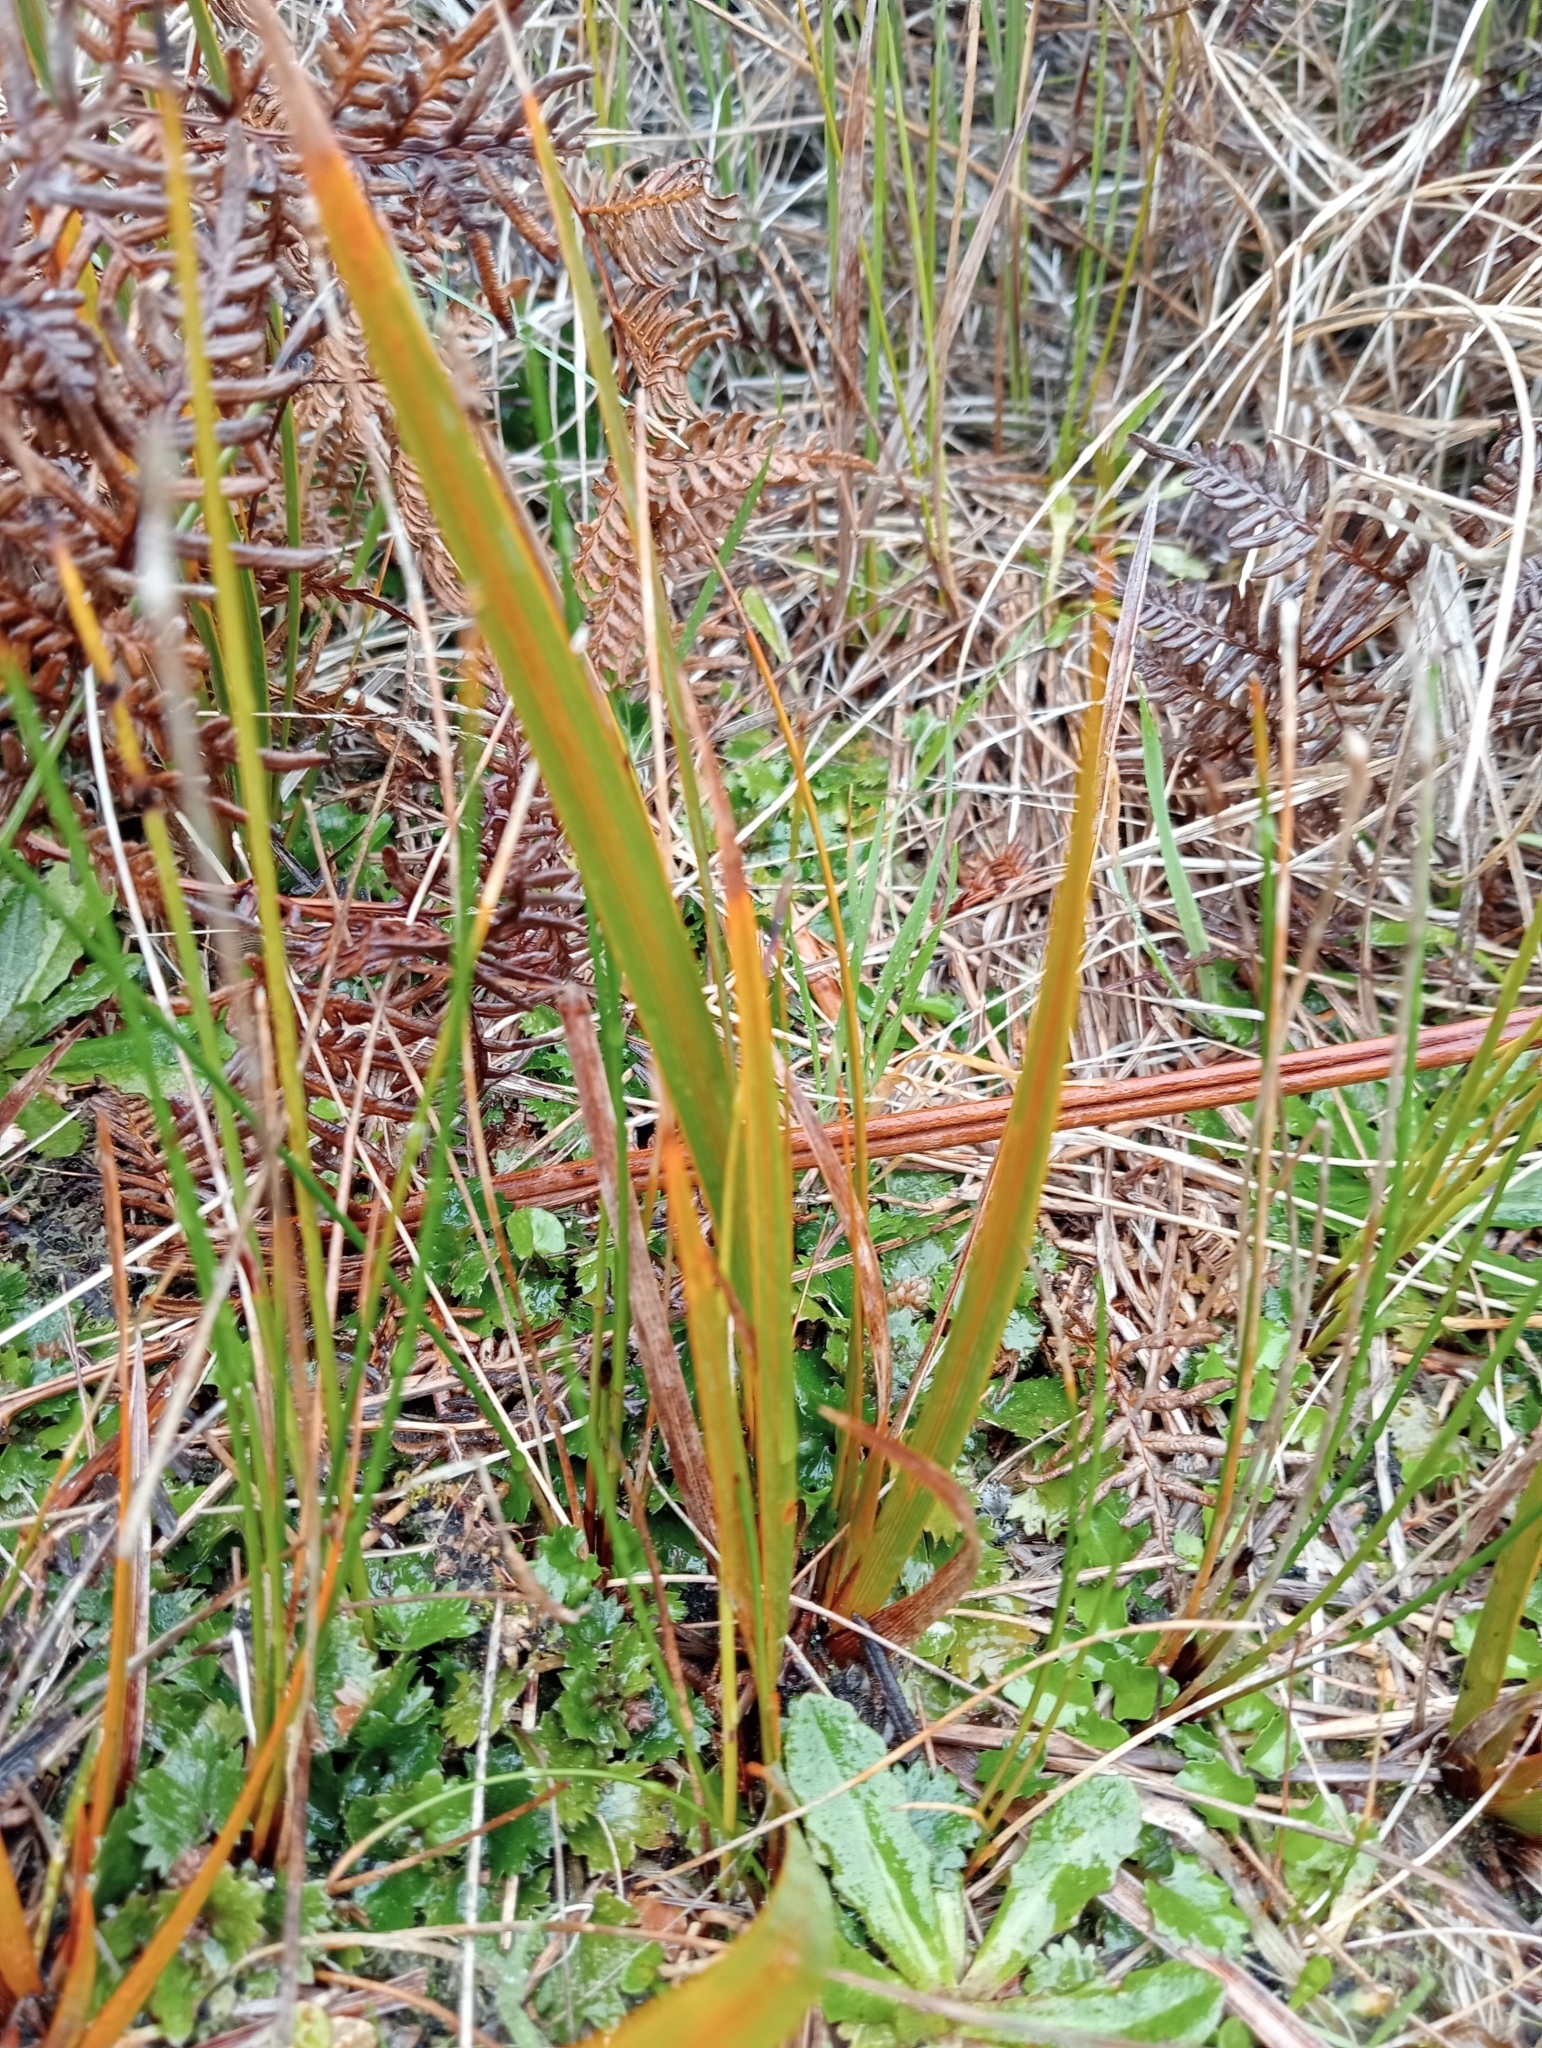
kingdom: Plantae
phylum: Tracheophyta
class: Liliopsida
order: Asparagales
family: Iridaceae
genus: Libertia
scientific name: Libertia peregrinans
